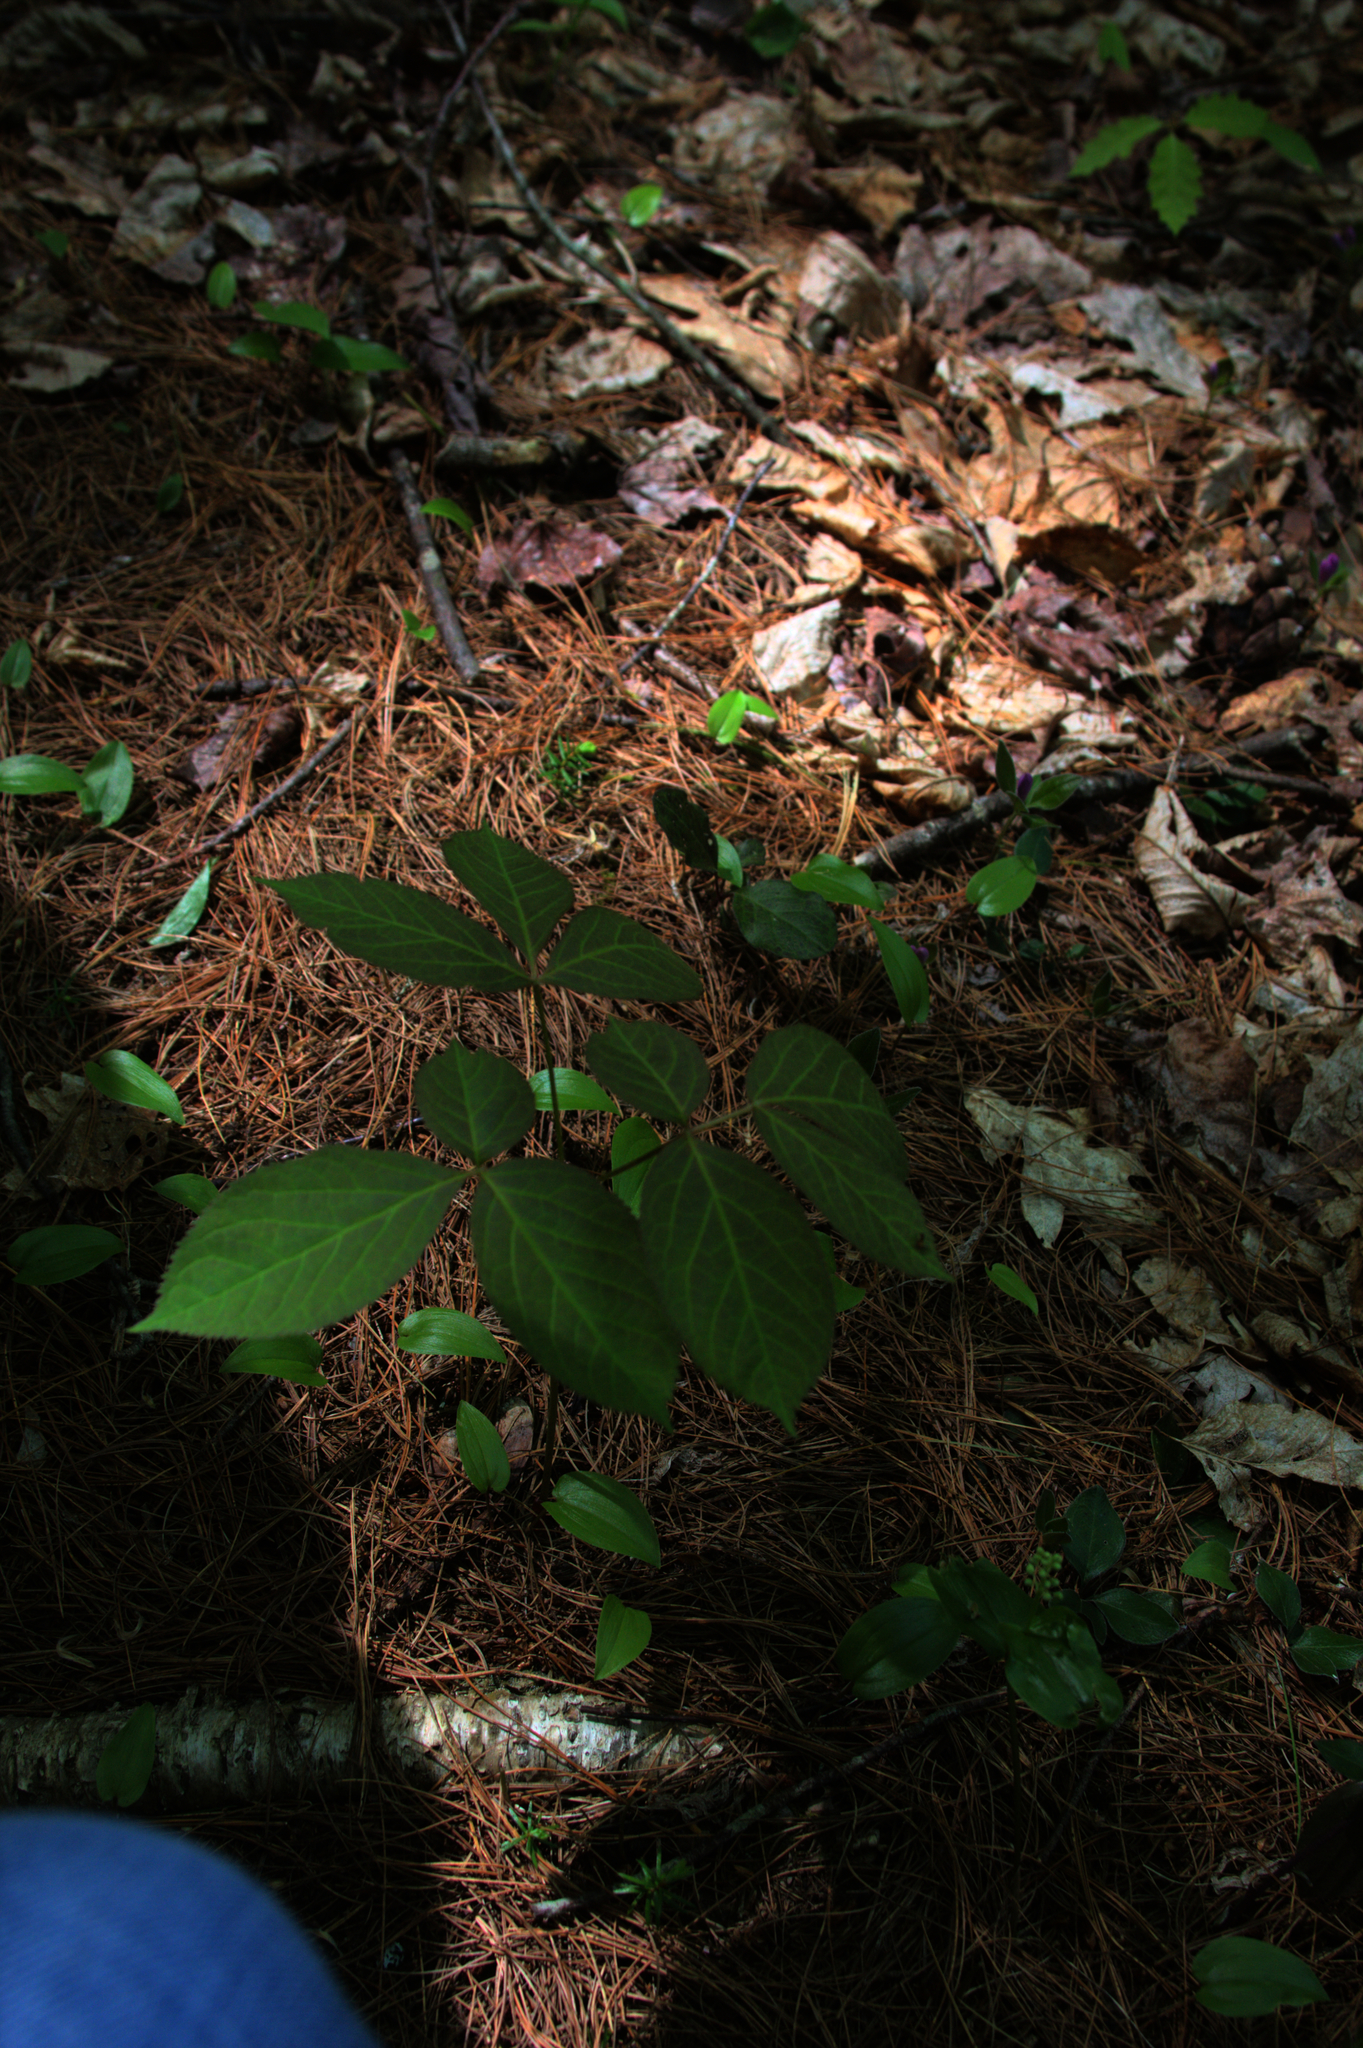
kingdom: Plantae
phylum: Tracheophyta
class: Magnoliopsida
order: Apiales
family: Araliaceae
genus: Aralia
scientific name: Aralia nudicaulis
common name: Wild sarsaparilla
